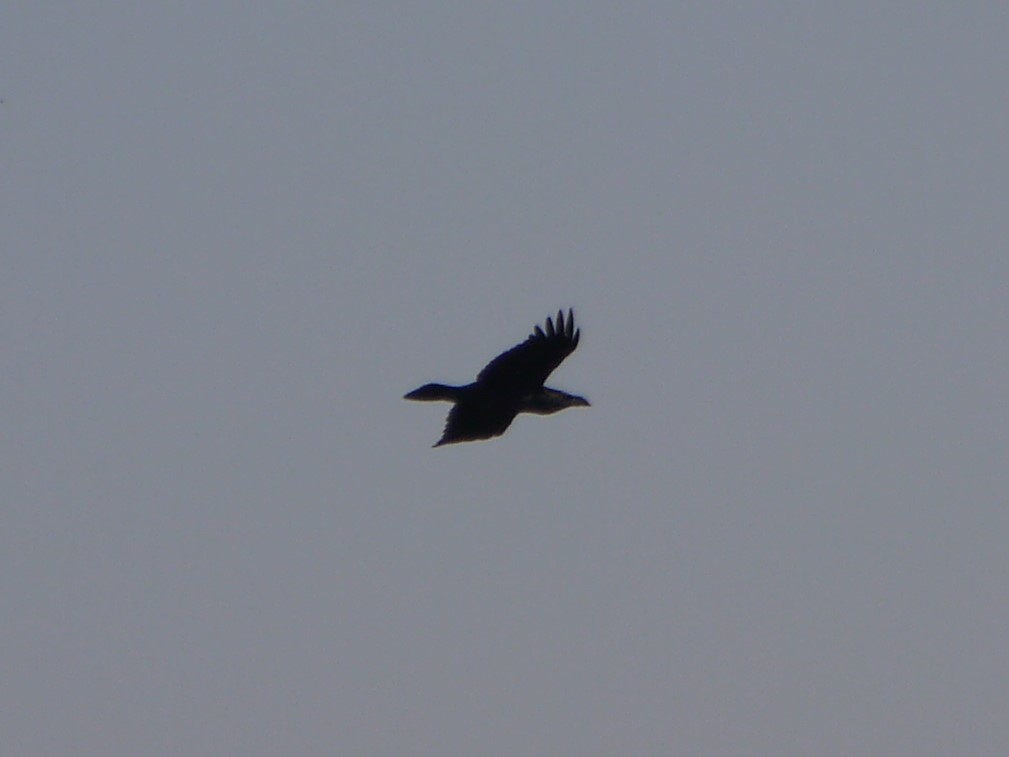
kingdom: Animalia
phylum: Chordata
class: Aves
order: Passeriformes
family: Corvidae
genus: Corvus
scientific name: Corvus corax
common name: Common raven
